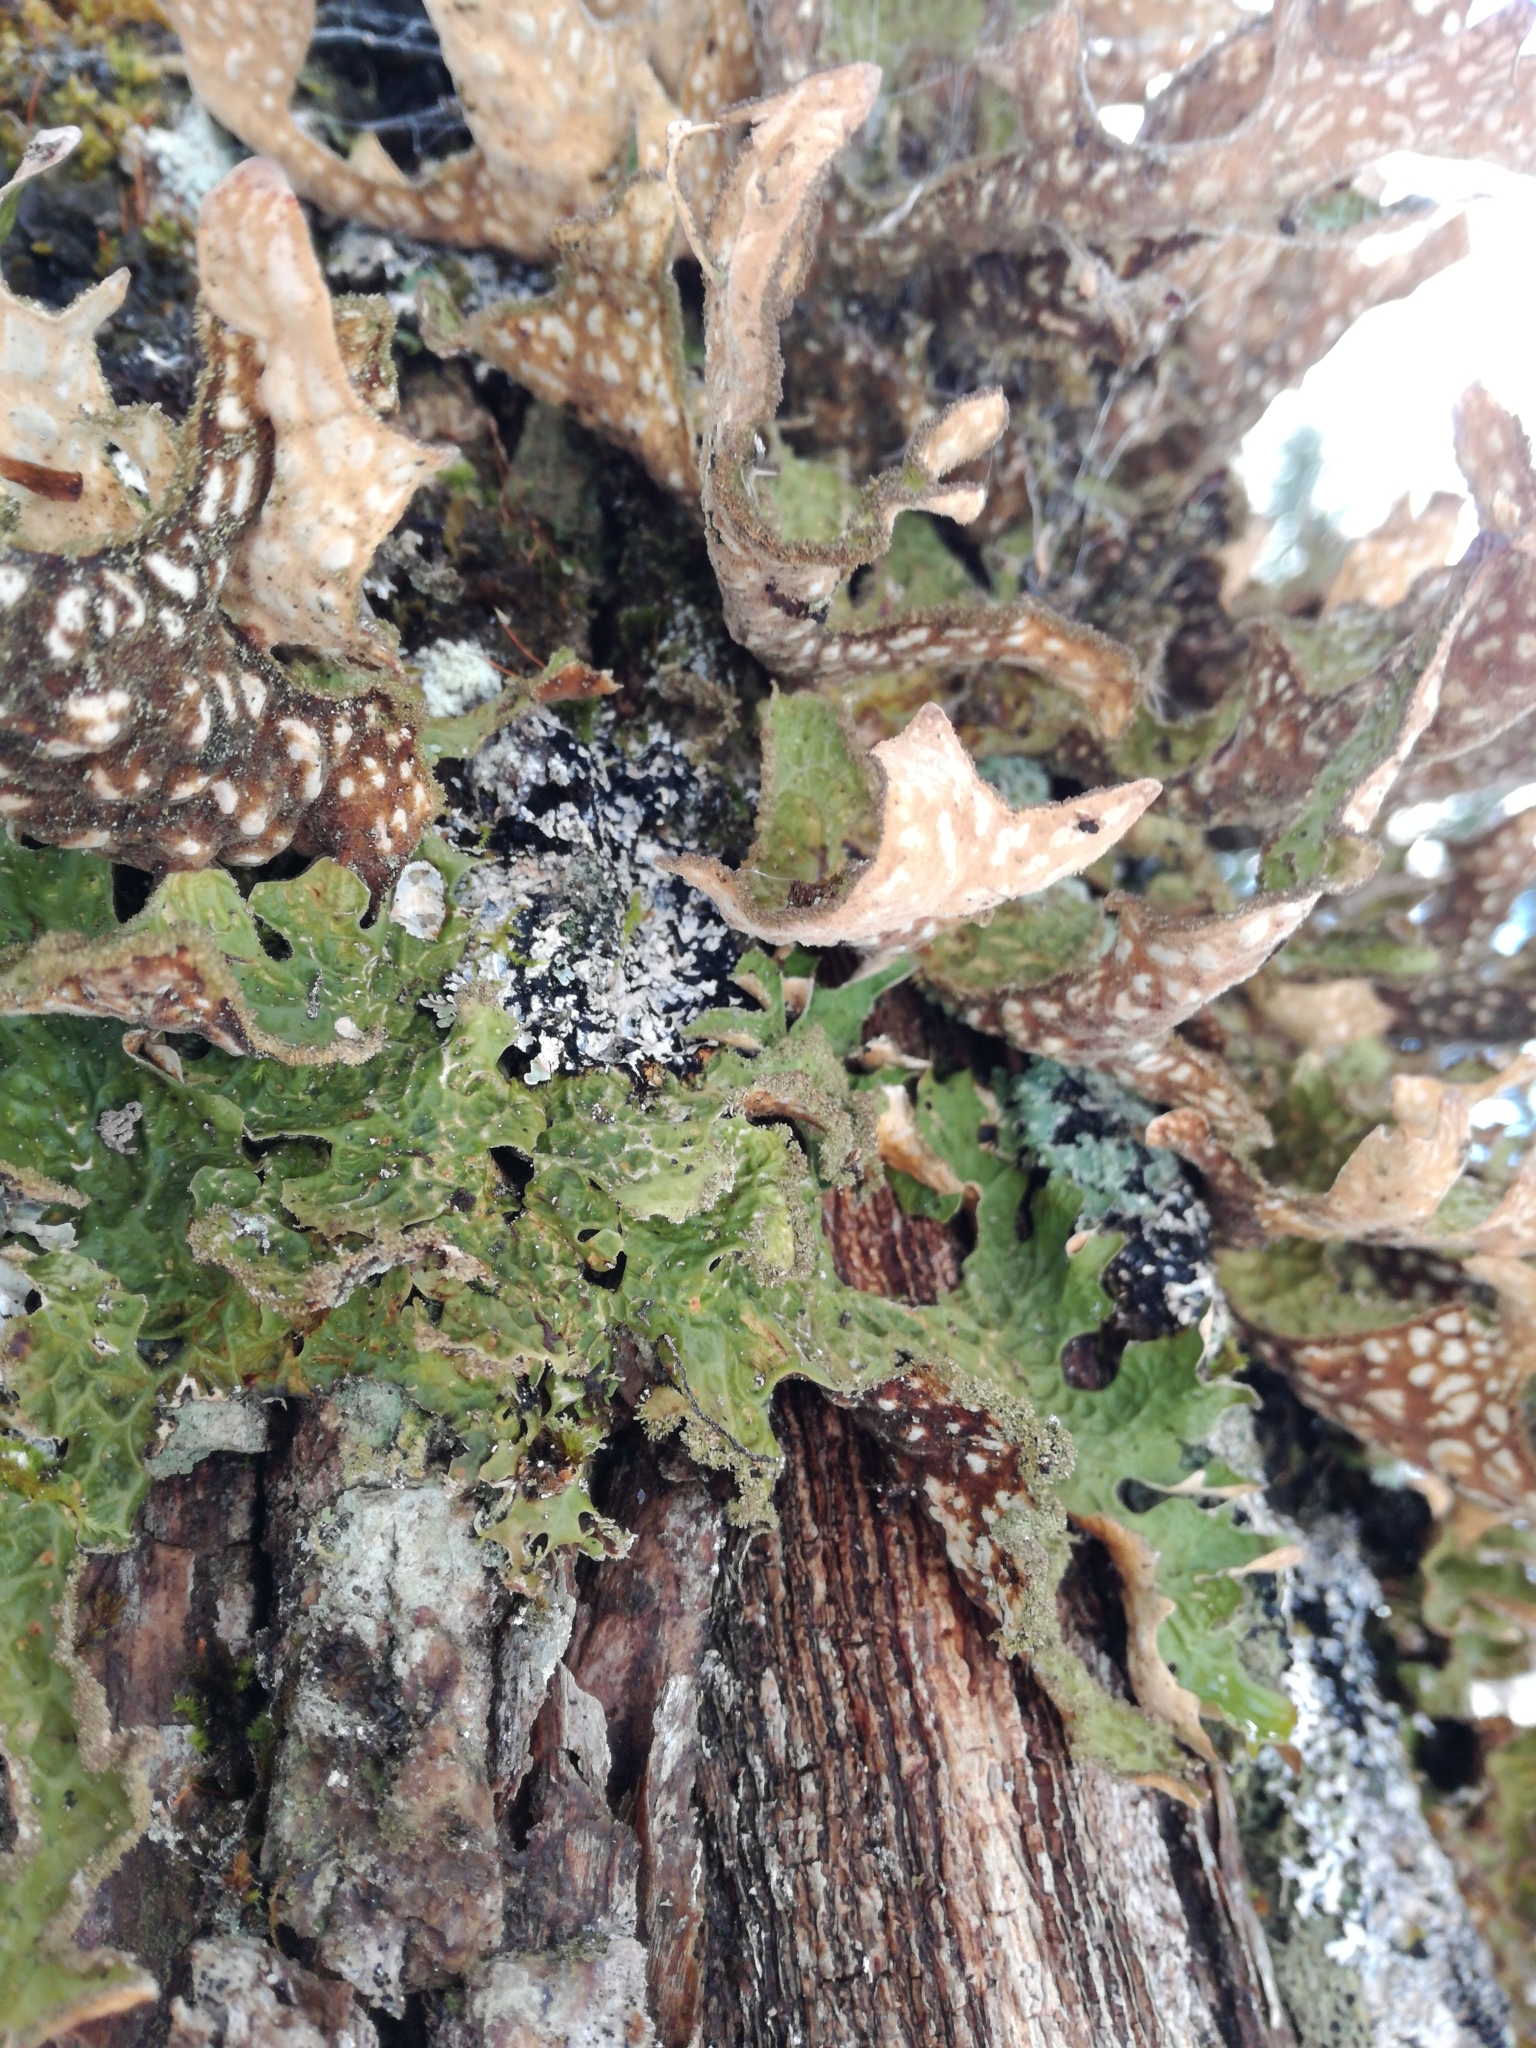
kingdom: Fungi
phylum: Ascomycota
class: Lecanoromycetes
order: Peltigerales
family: Lobariaceae
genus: Lobaria
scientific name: Lobaria pulmonaria
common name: Lungwort
